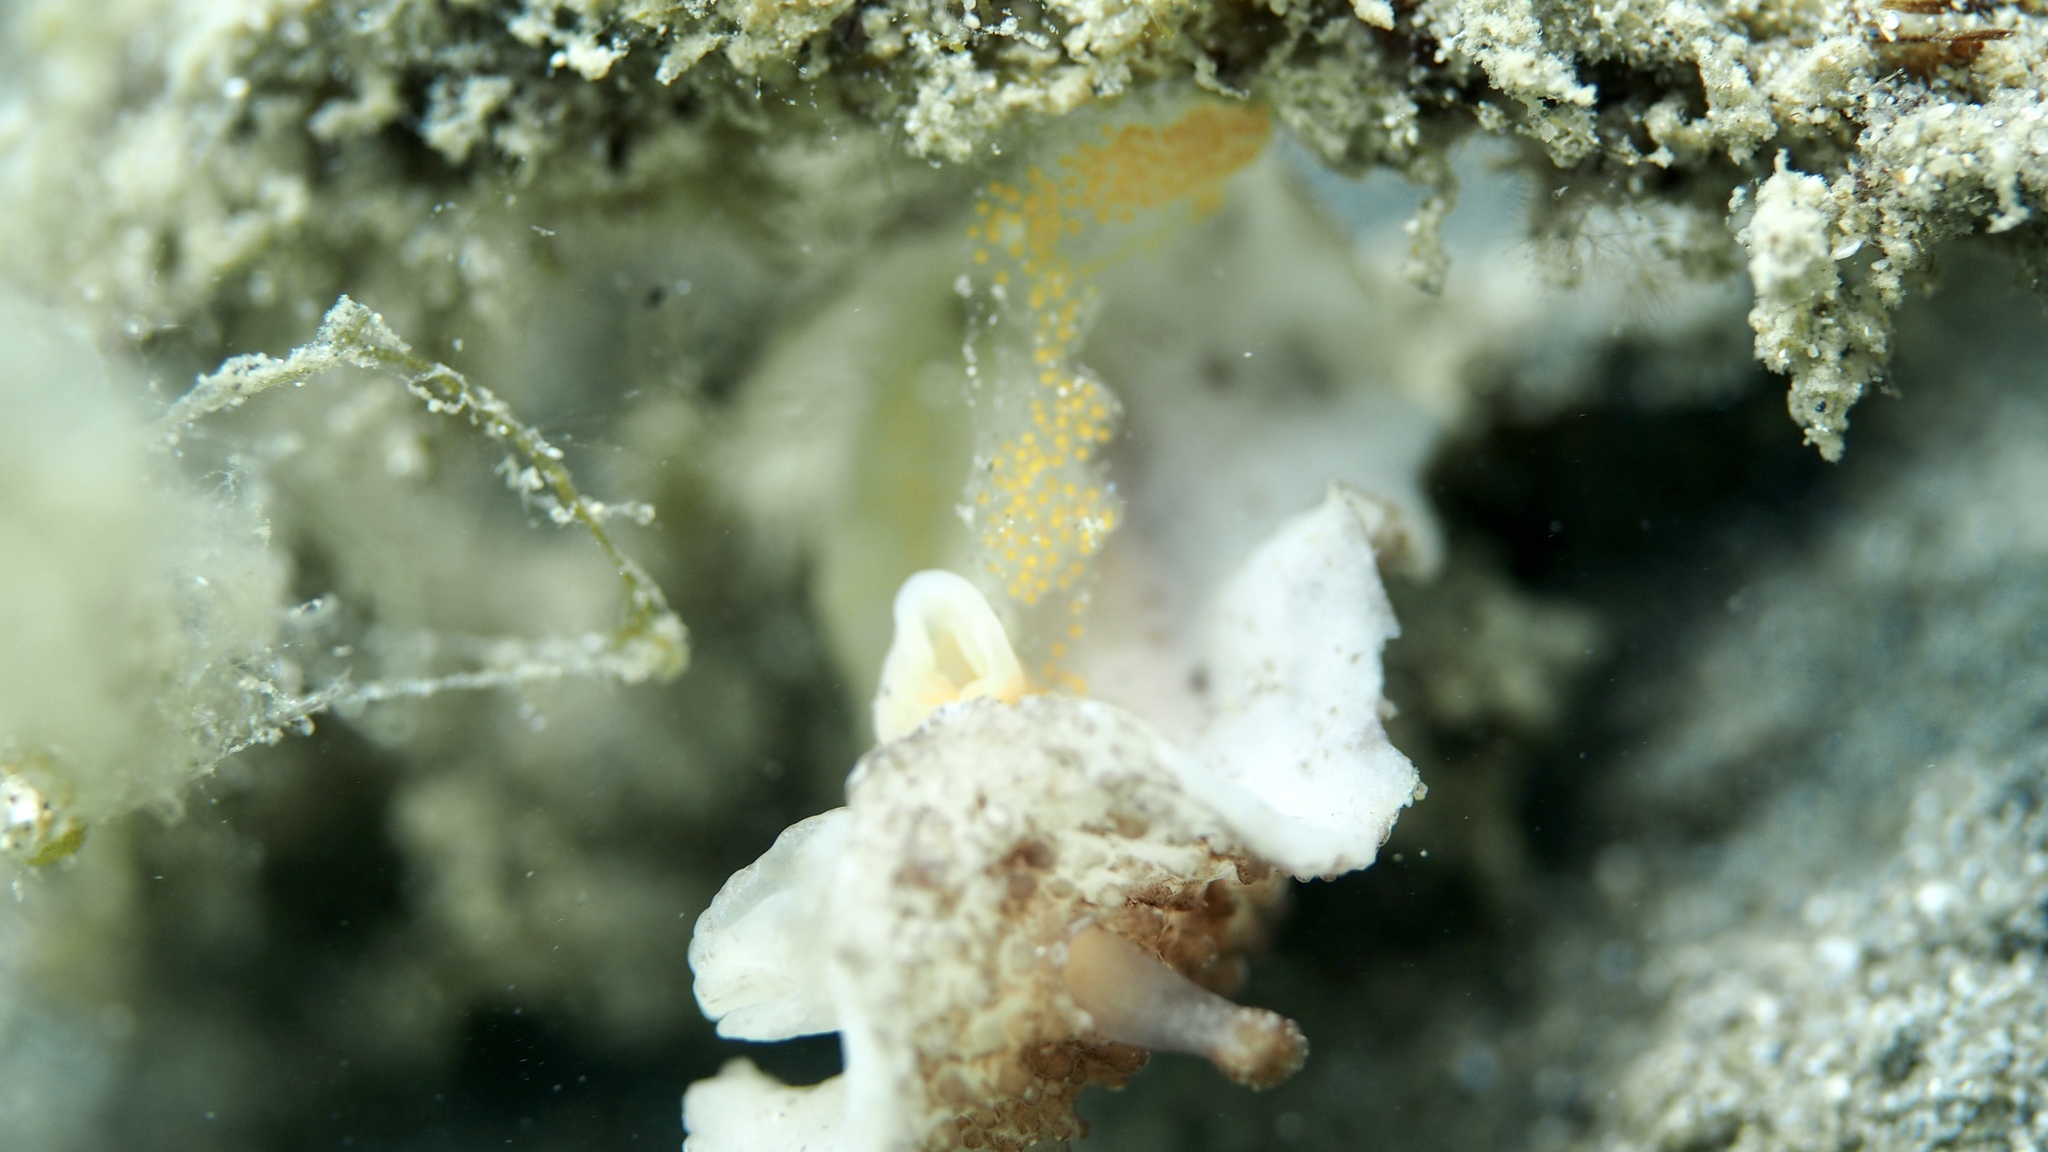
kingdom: Animalia
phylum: Mollusca
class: Gastropoda
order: Nudibranchia
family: Discodorididae
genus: Carminodoris
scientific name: Carminodoris nodulosa
